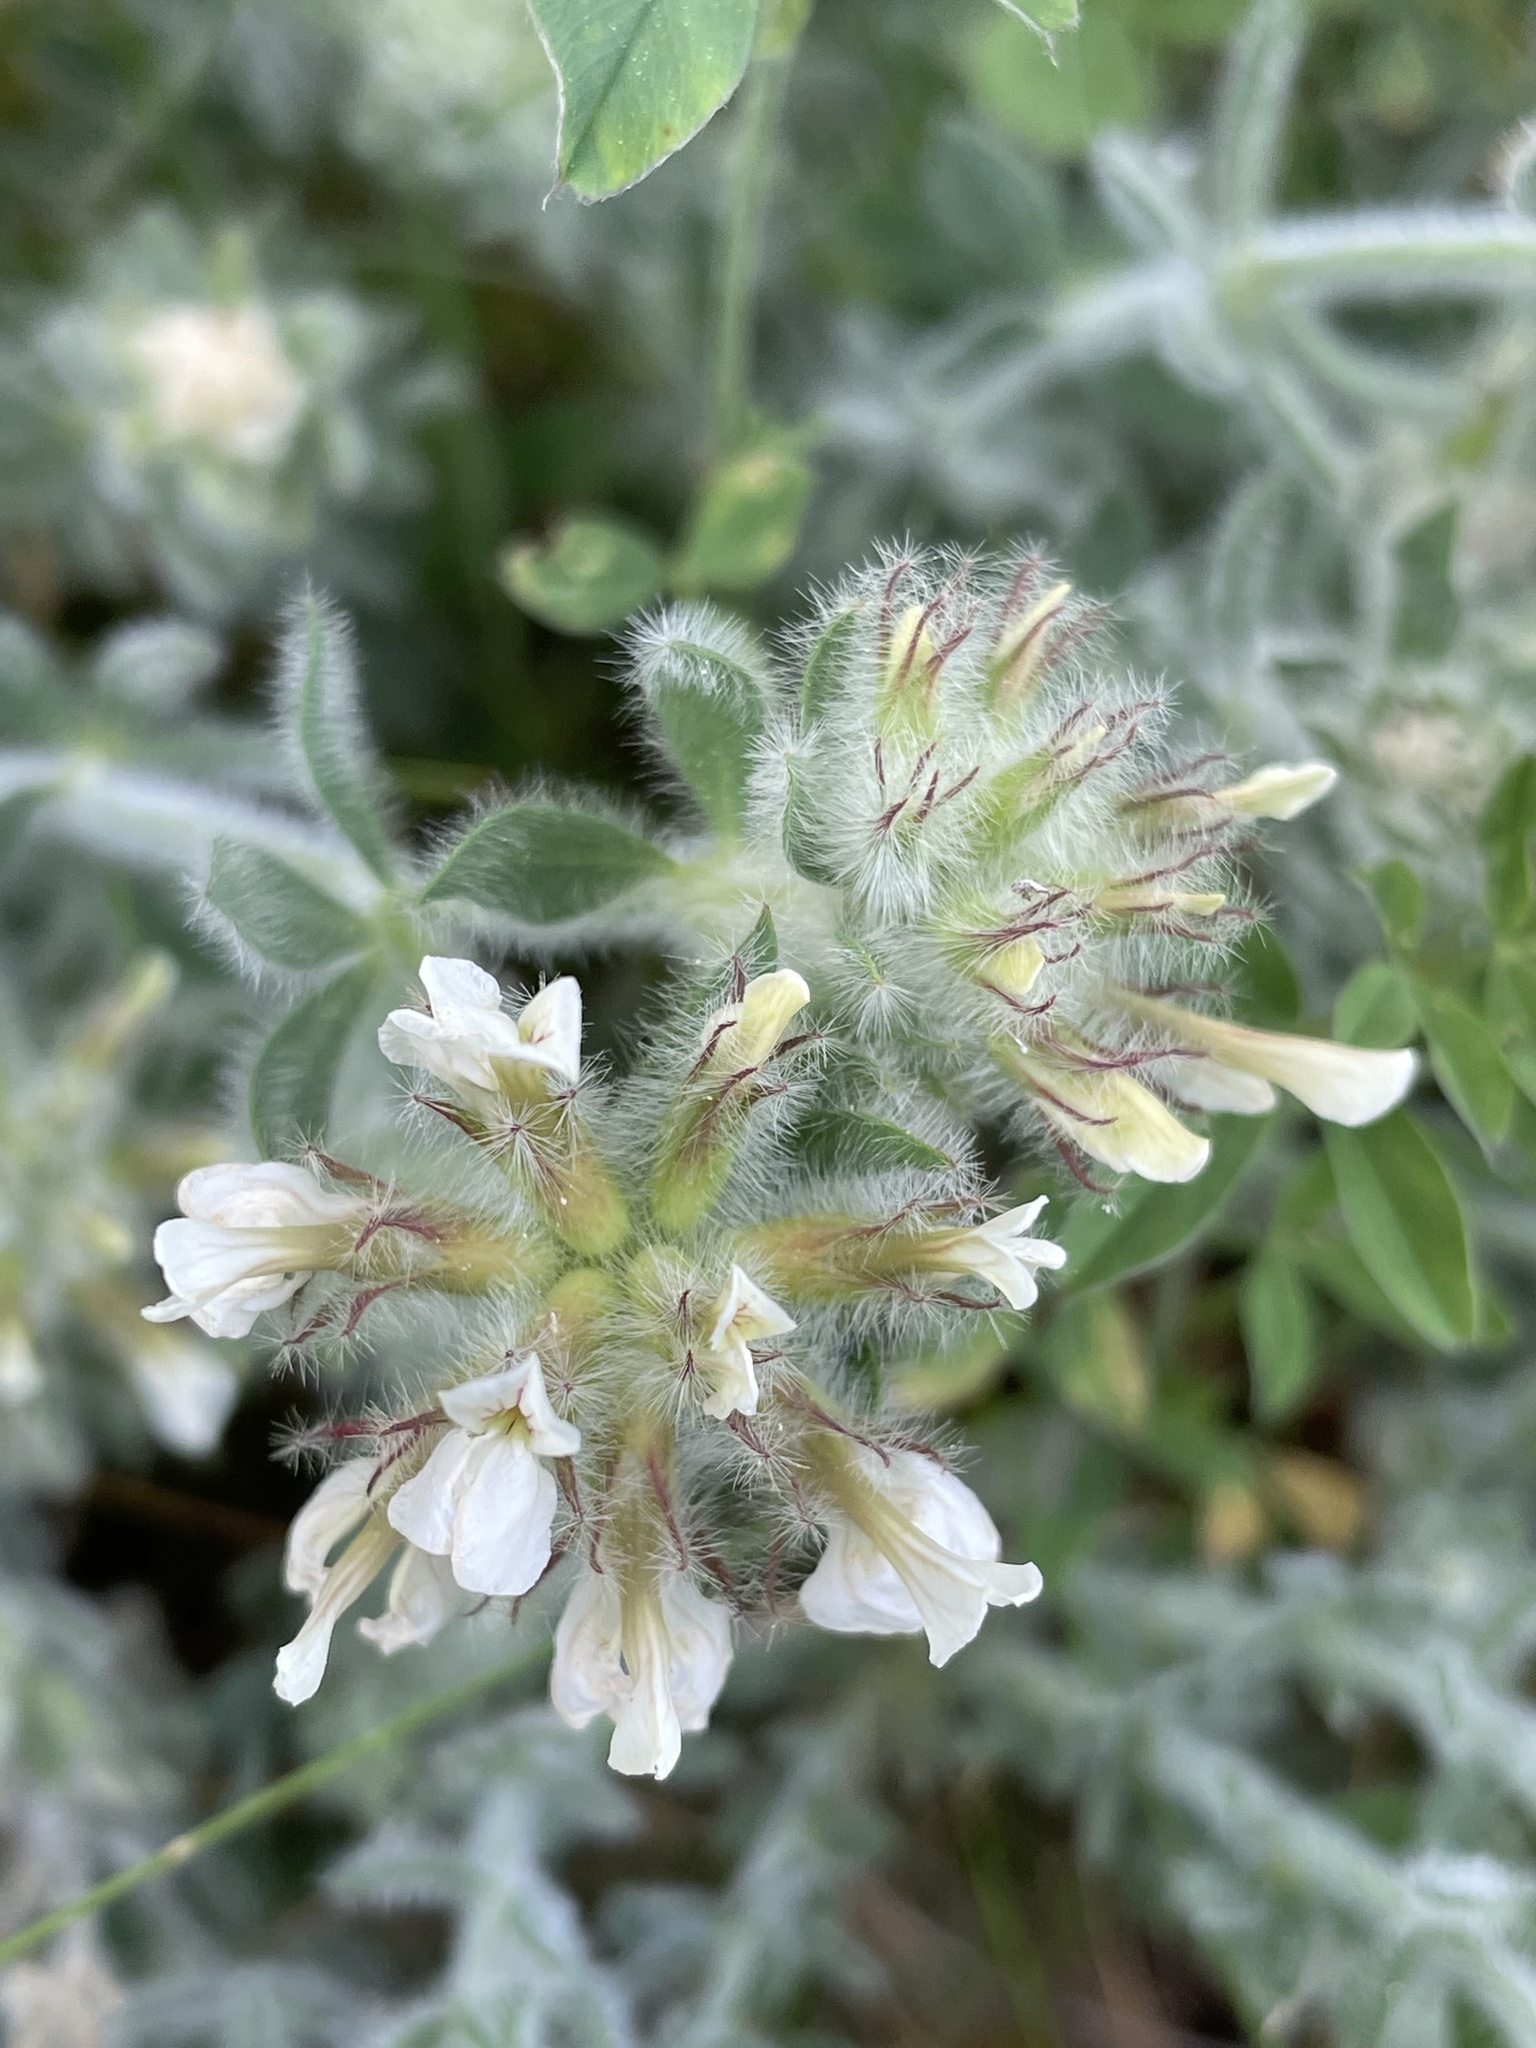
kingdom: Plantae
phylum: Tracheophyta
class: Magnoliopsida
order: Fabales
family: Fabaceae
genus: Lotus
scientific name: Lotus hirsutus
